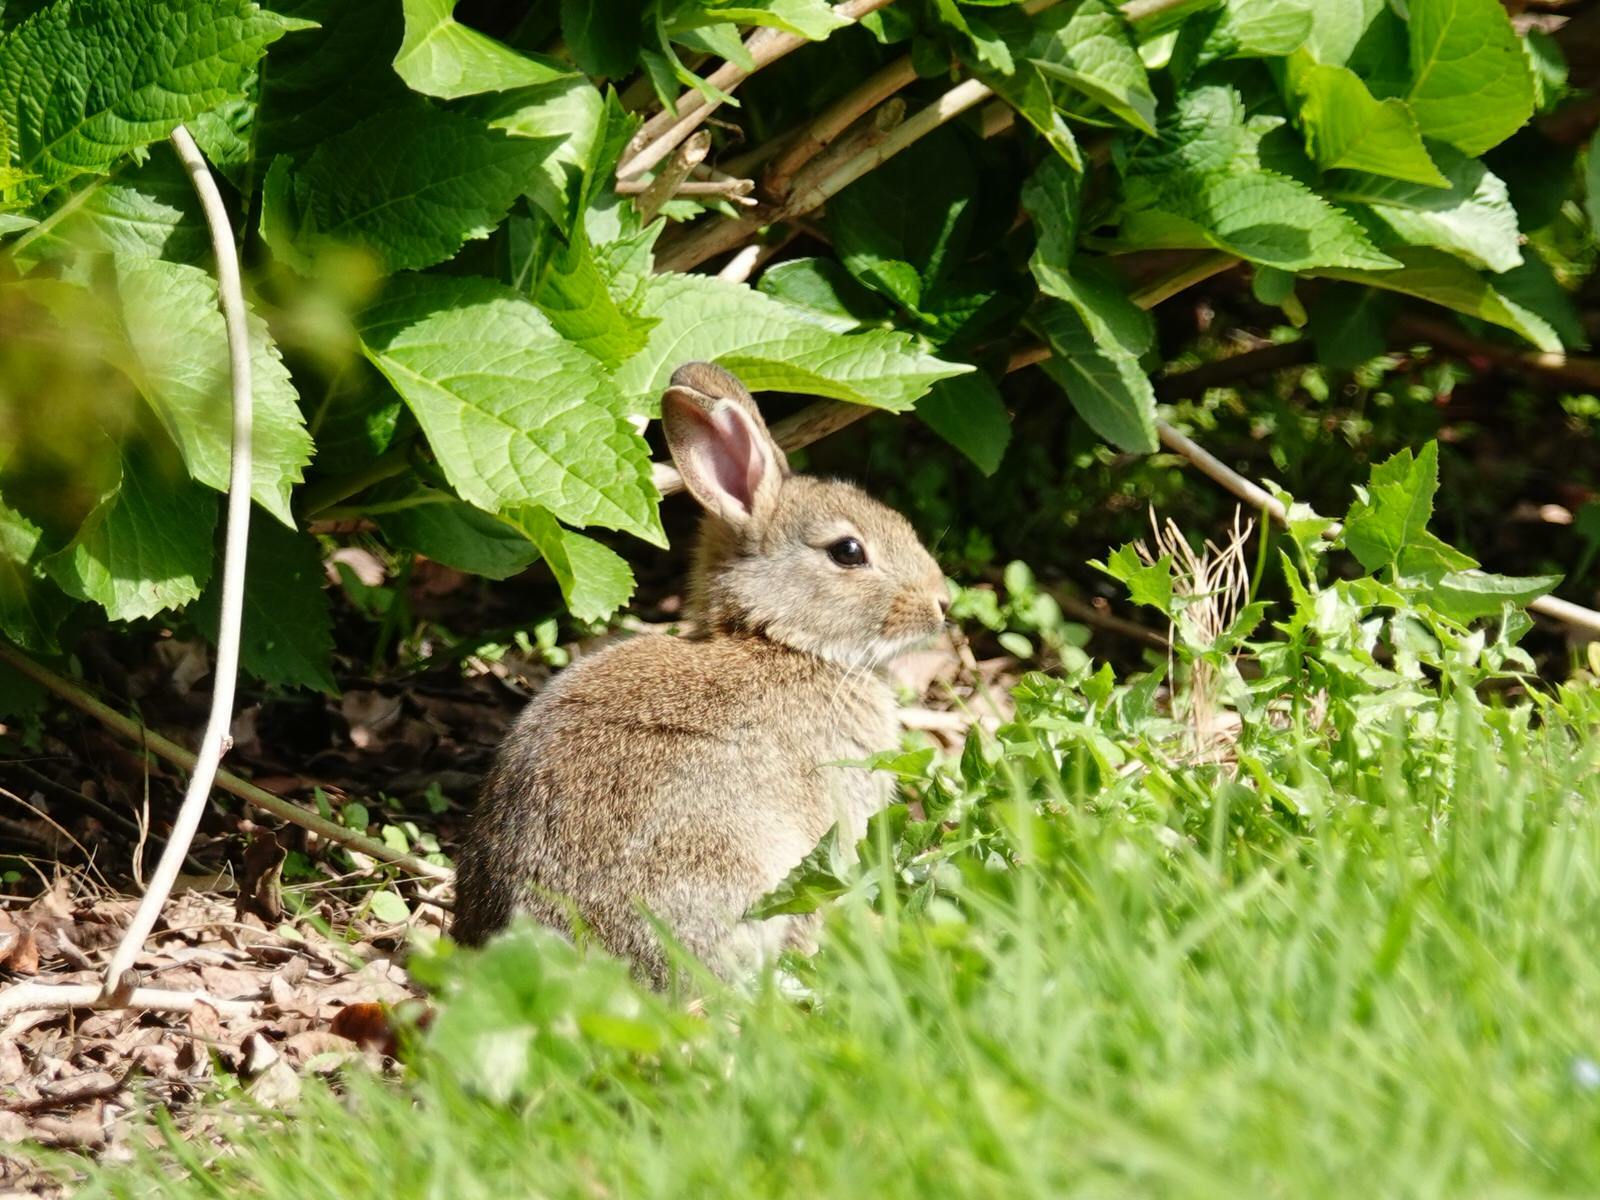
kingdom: Animalia
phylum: Chordata
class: Mammalia
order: Lagomorpha
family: Leporidae
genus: Oryctolagus
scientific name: Oryctolagus cuniculus
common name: European rabbit
